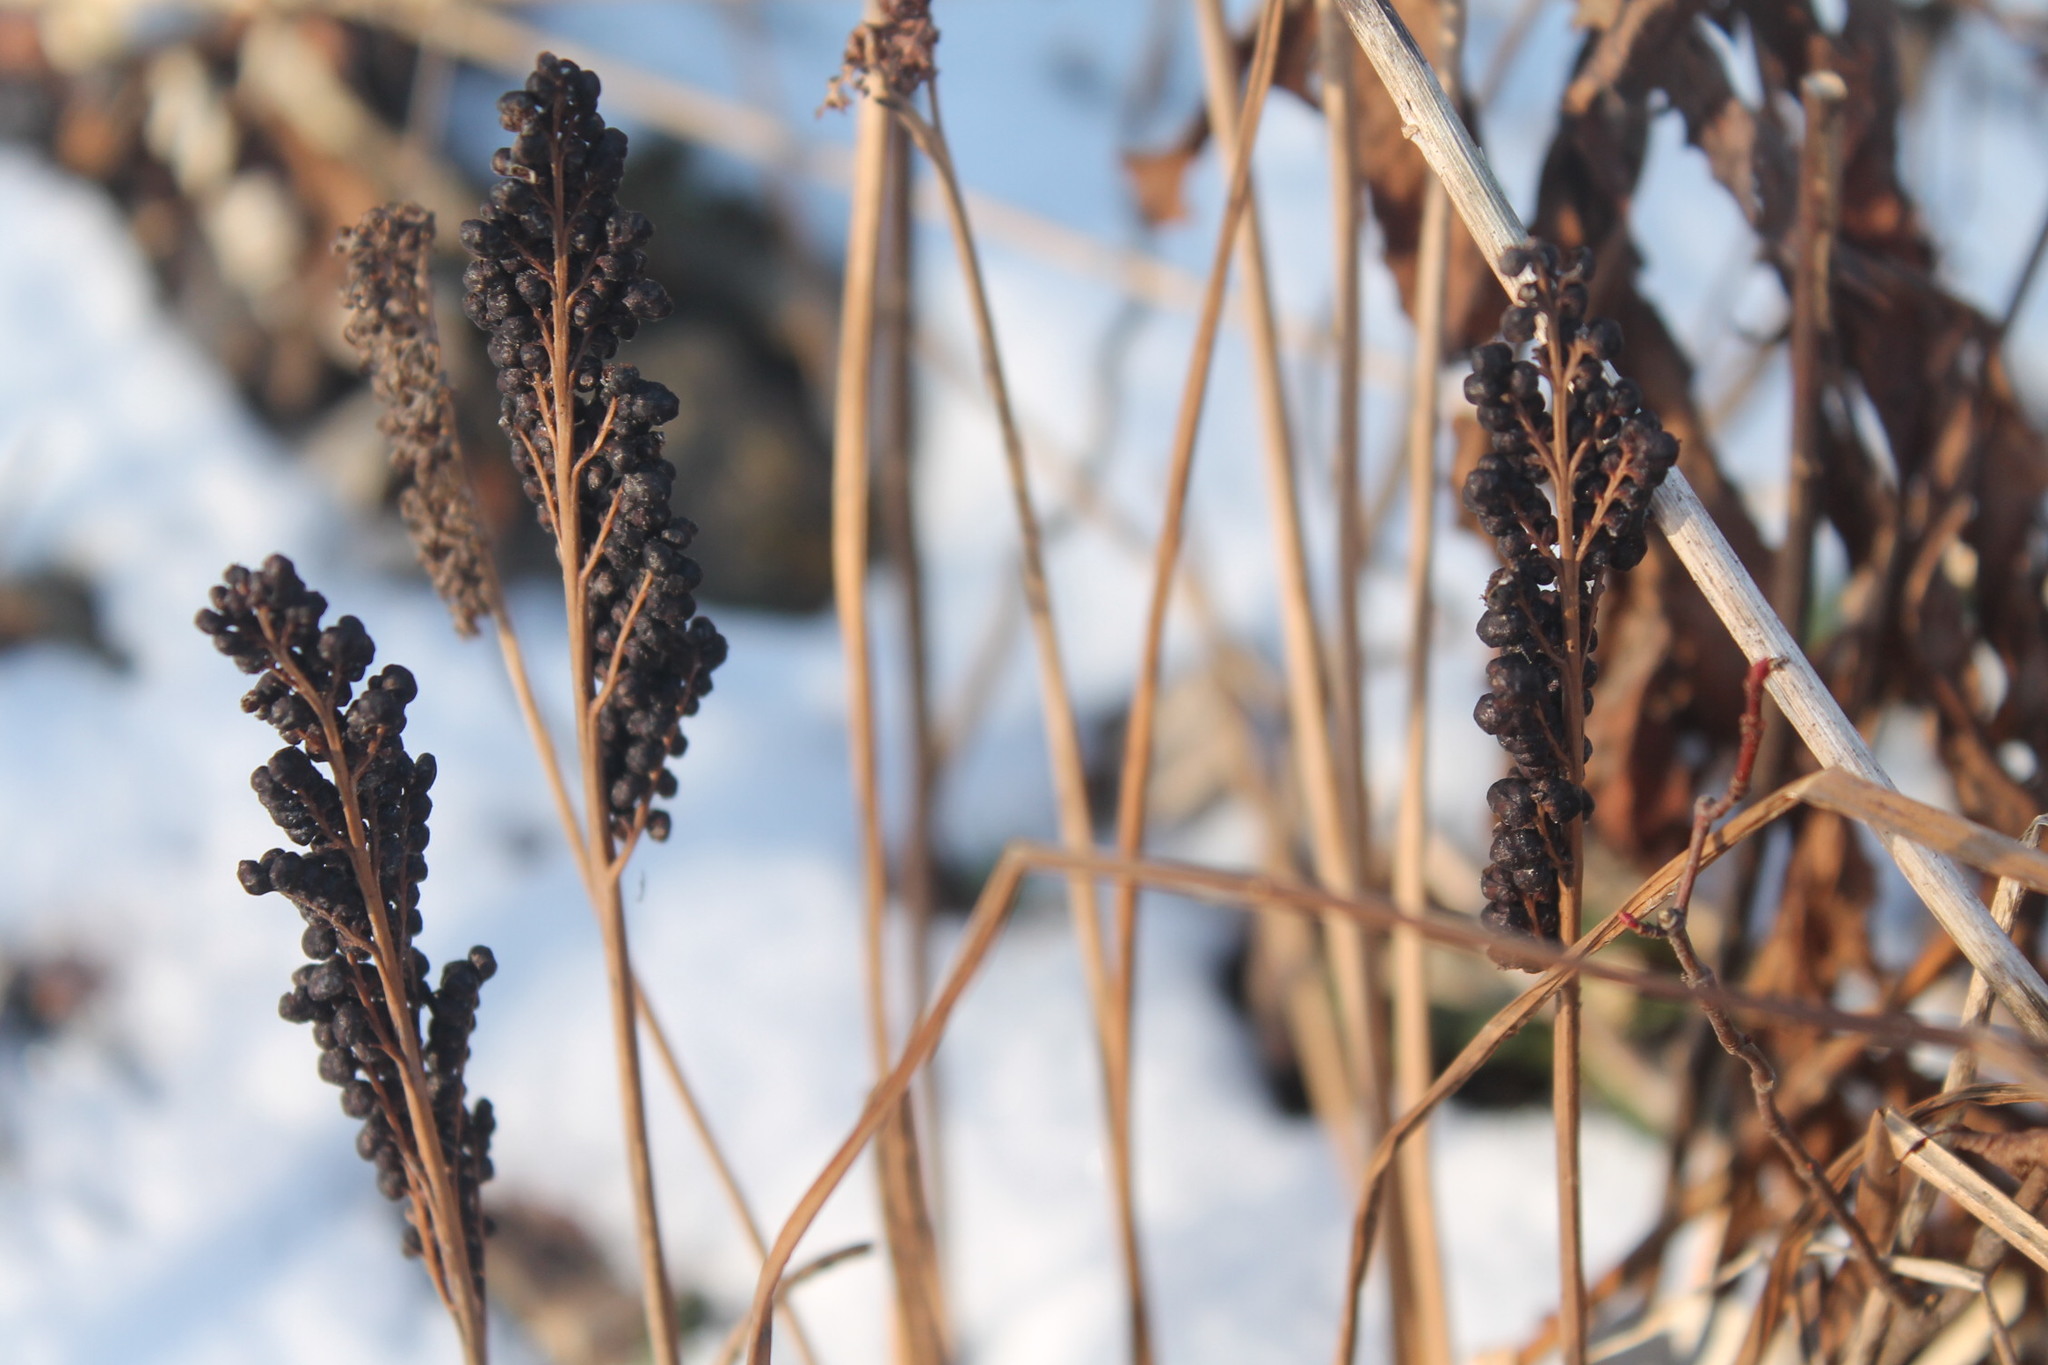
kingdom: Plantae
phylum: Tracheophyta
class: Polypodiopsida
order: Polypodiales
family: Onocleaceae
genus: Onoclea
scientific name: Onoclea sensibilis
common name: Sensitive fern
